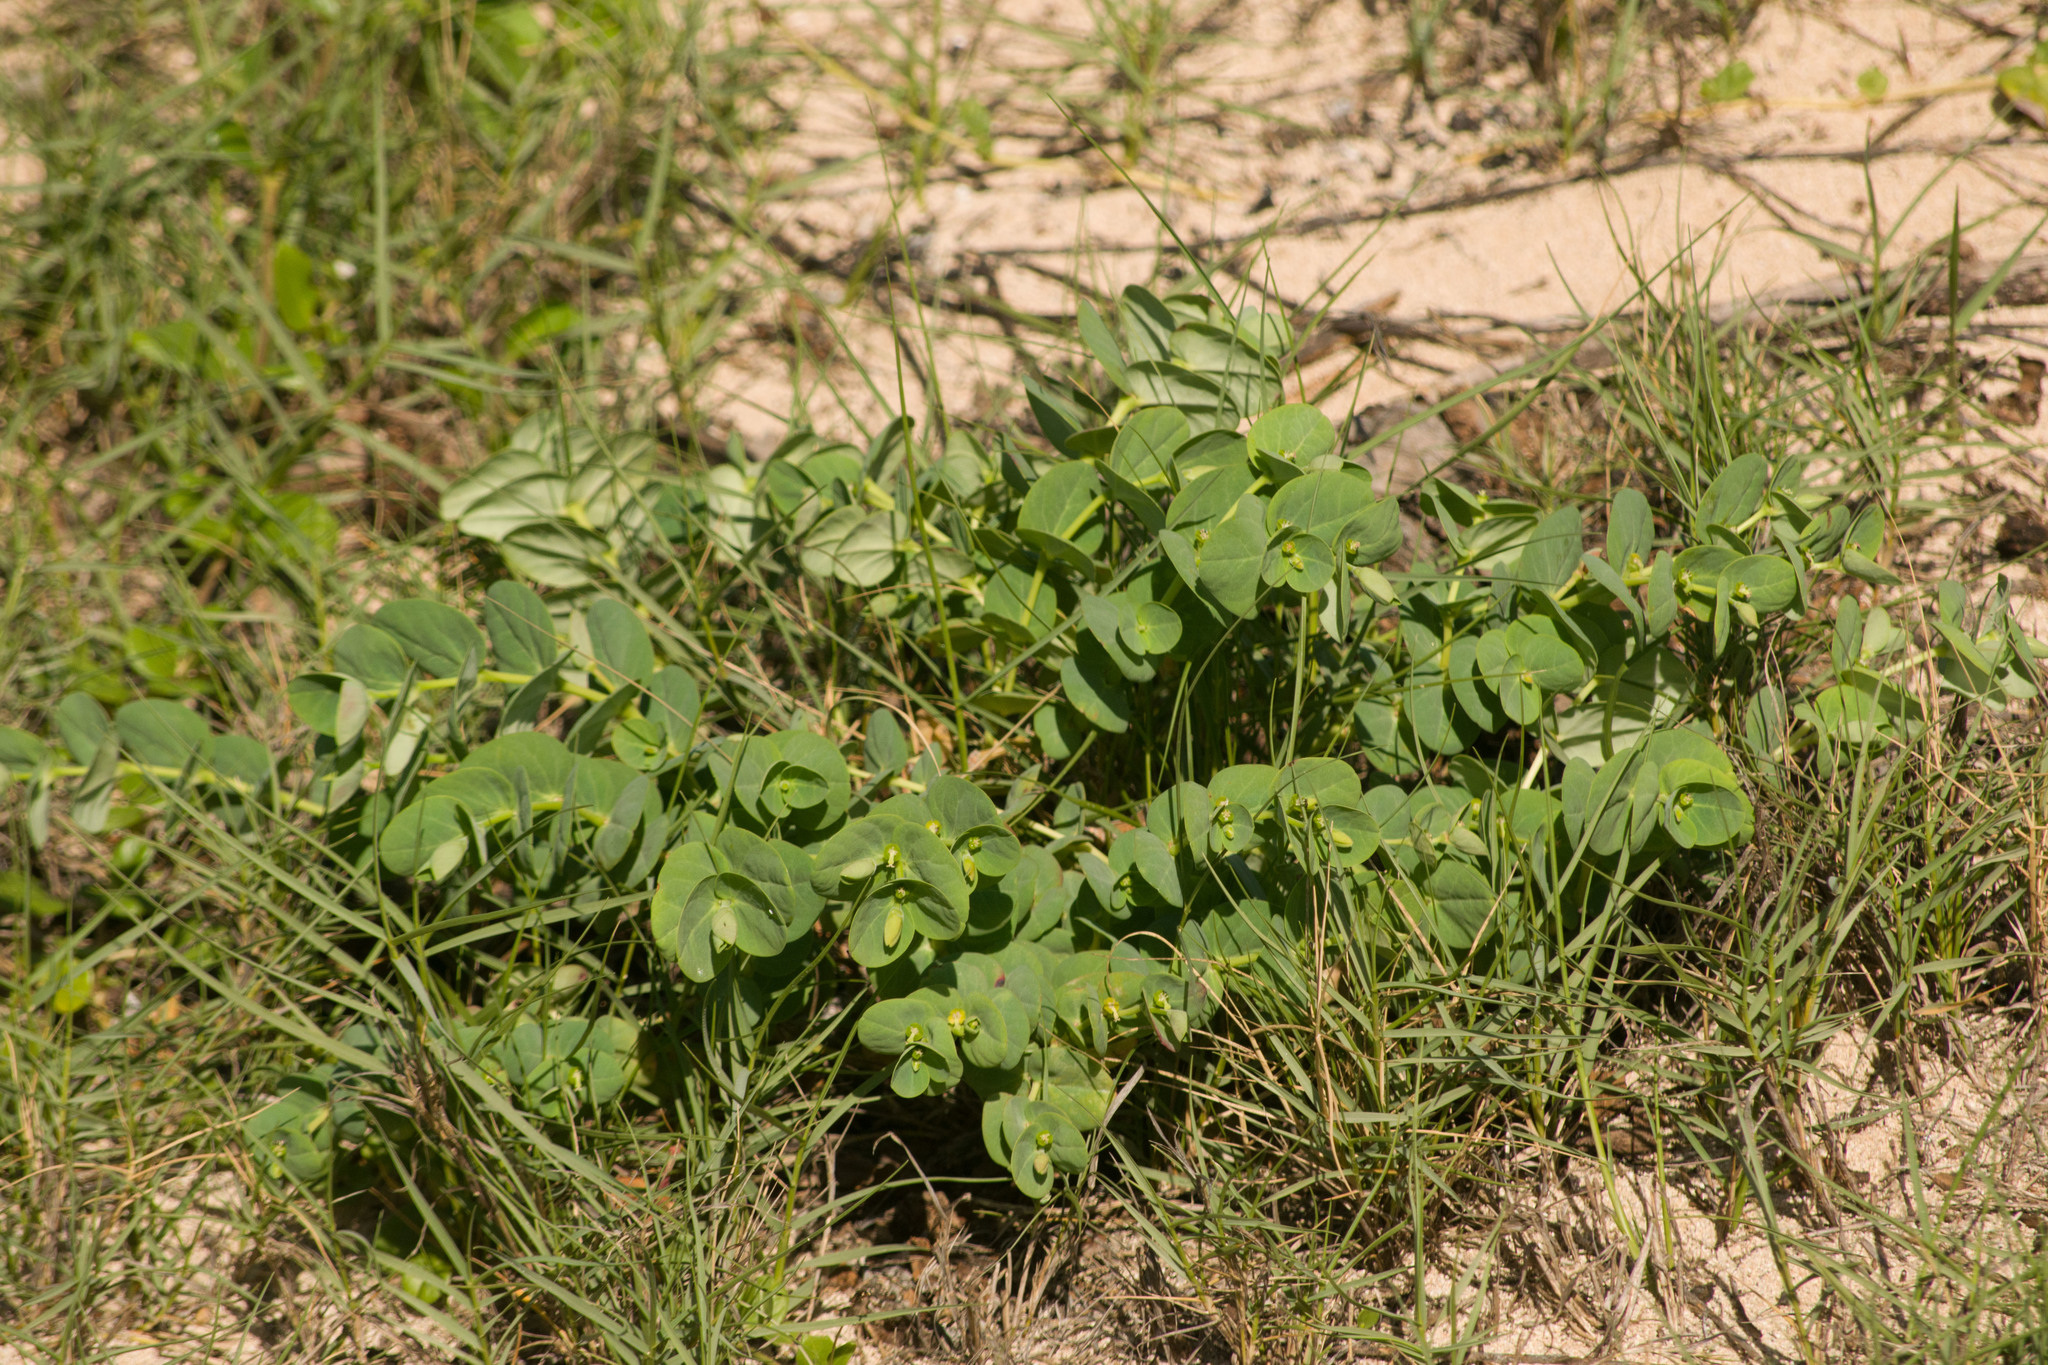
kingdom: Plantae
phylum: Tracheophyta
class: Magnoliopsida
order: Malpighiales
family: Euphorbiaceae
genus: Euphorbia
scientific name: Euphorbia degeneri
